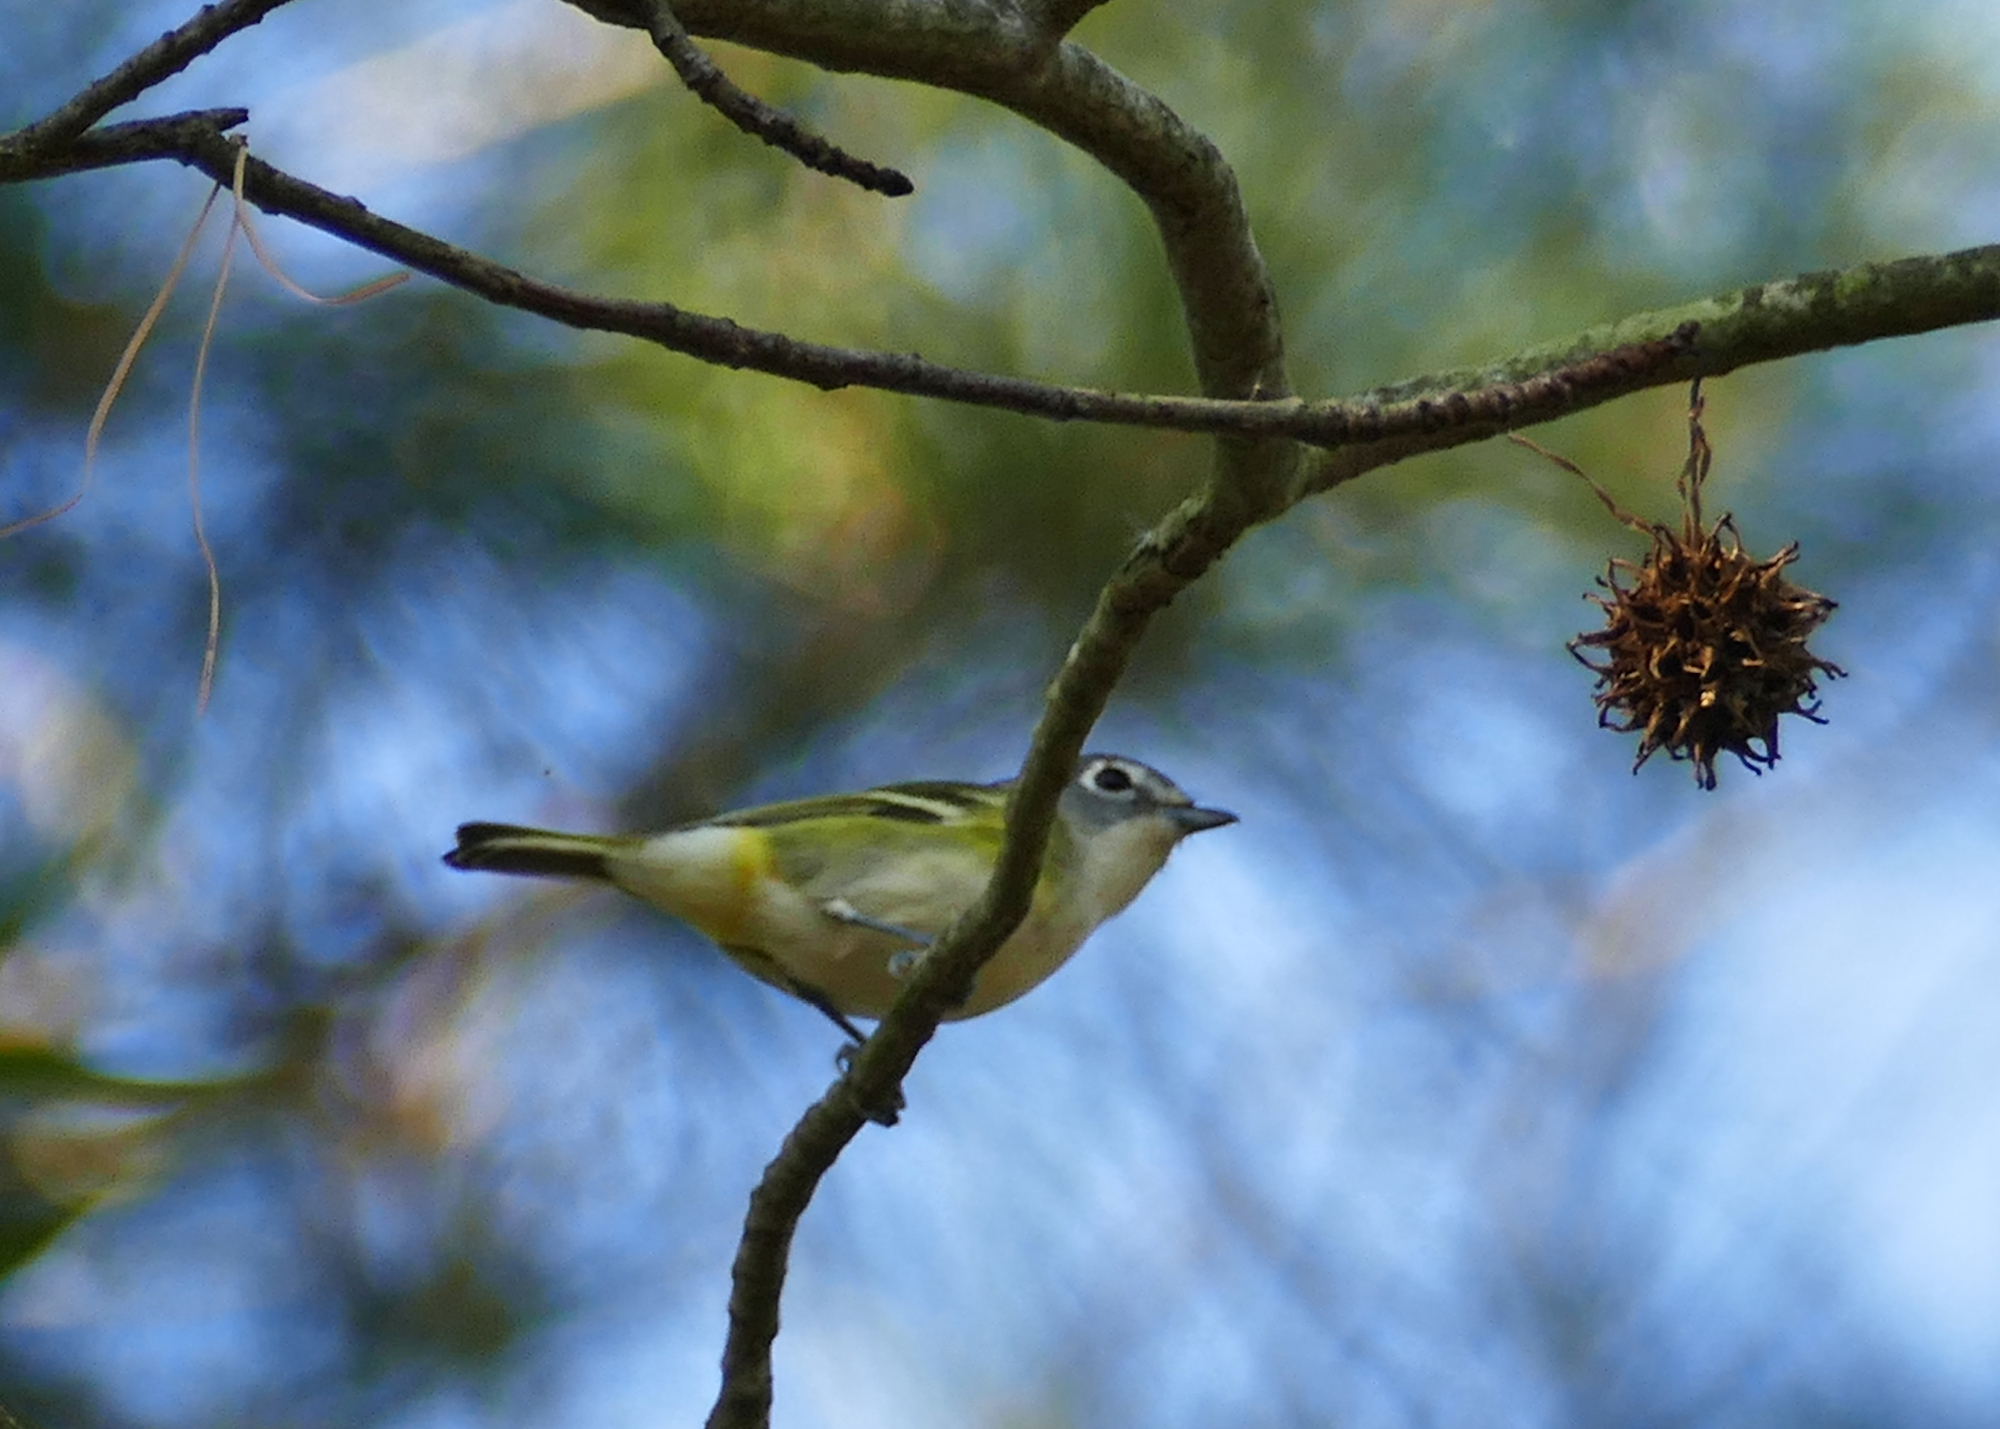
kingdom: Animalia
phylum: Chordata
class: Aves
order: Passeriformes
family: Vireonidae
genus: Vireo
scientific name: Vireo solitarius
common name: Blue-headed vireo
